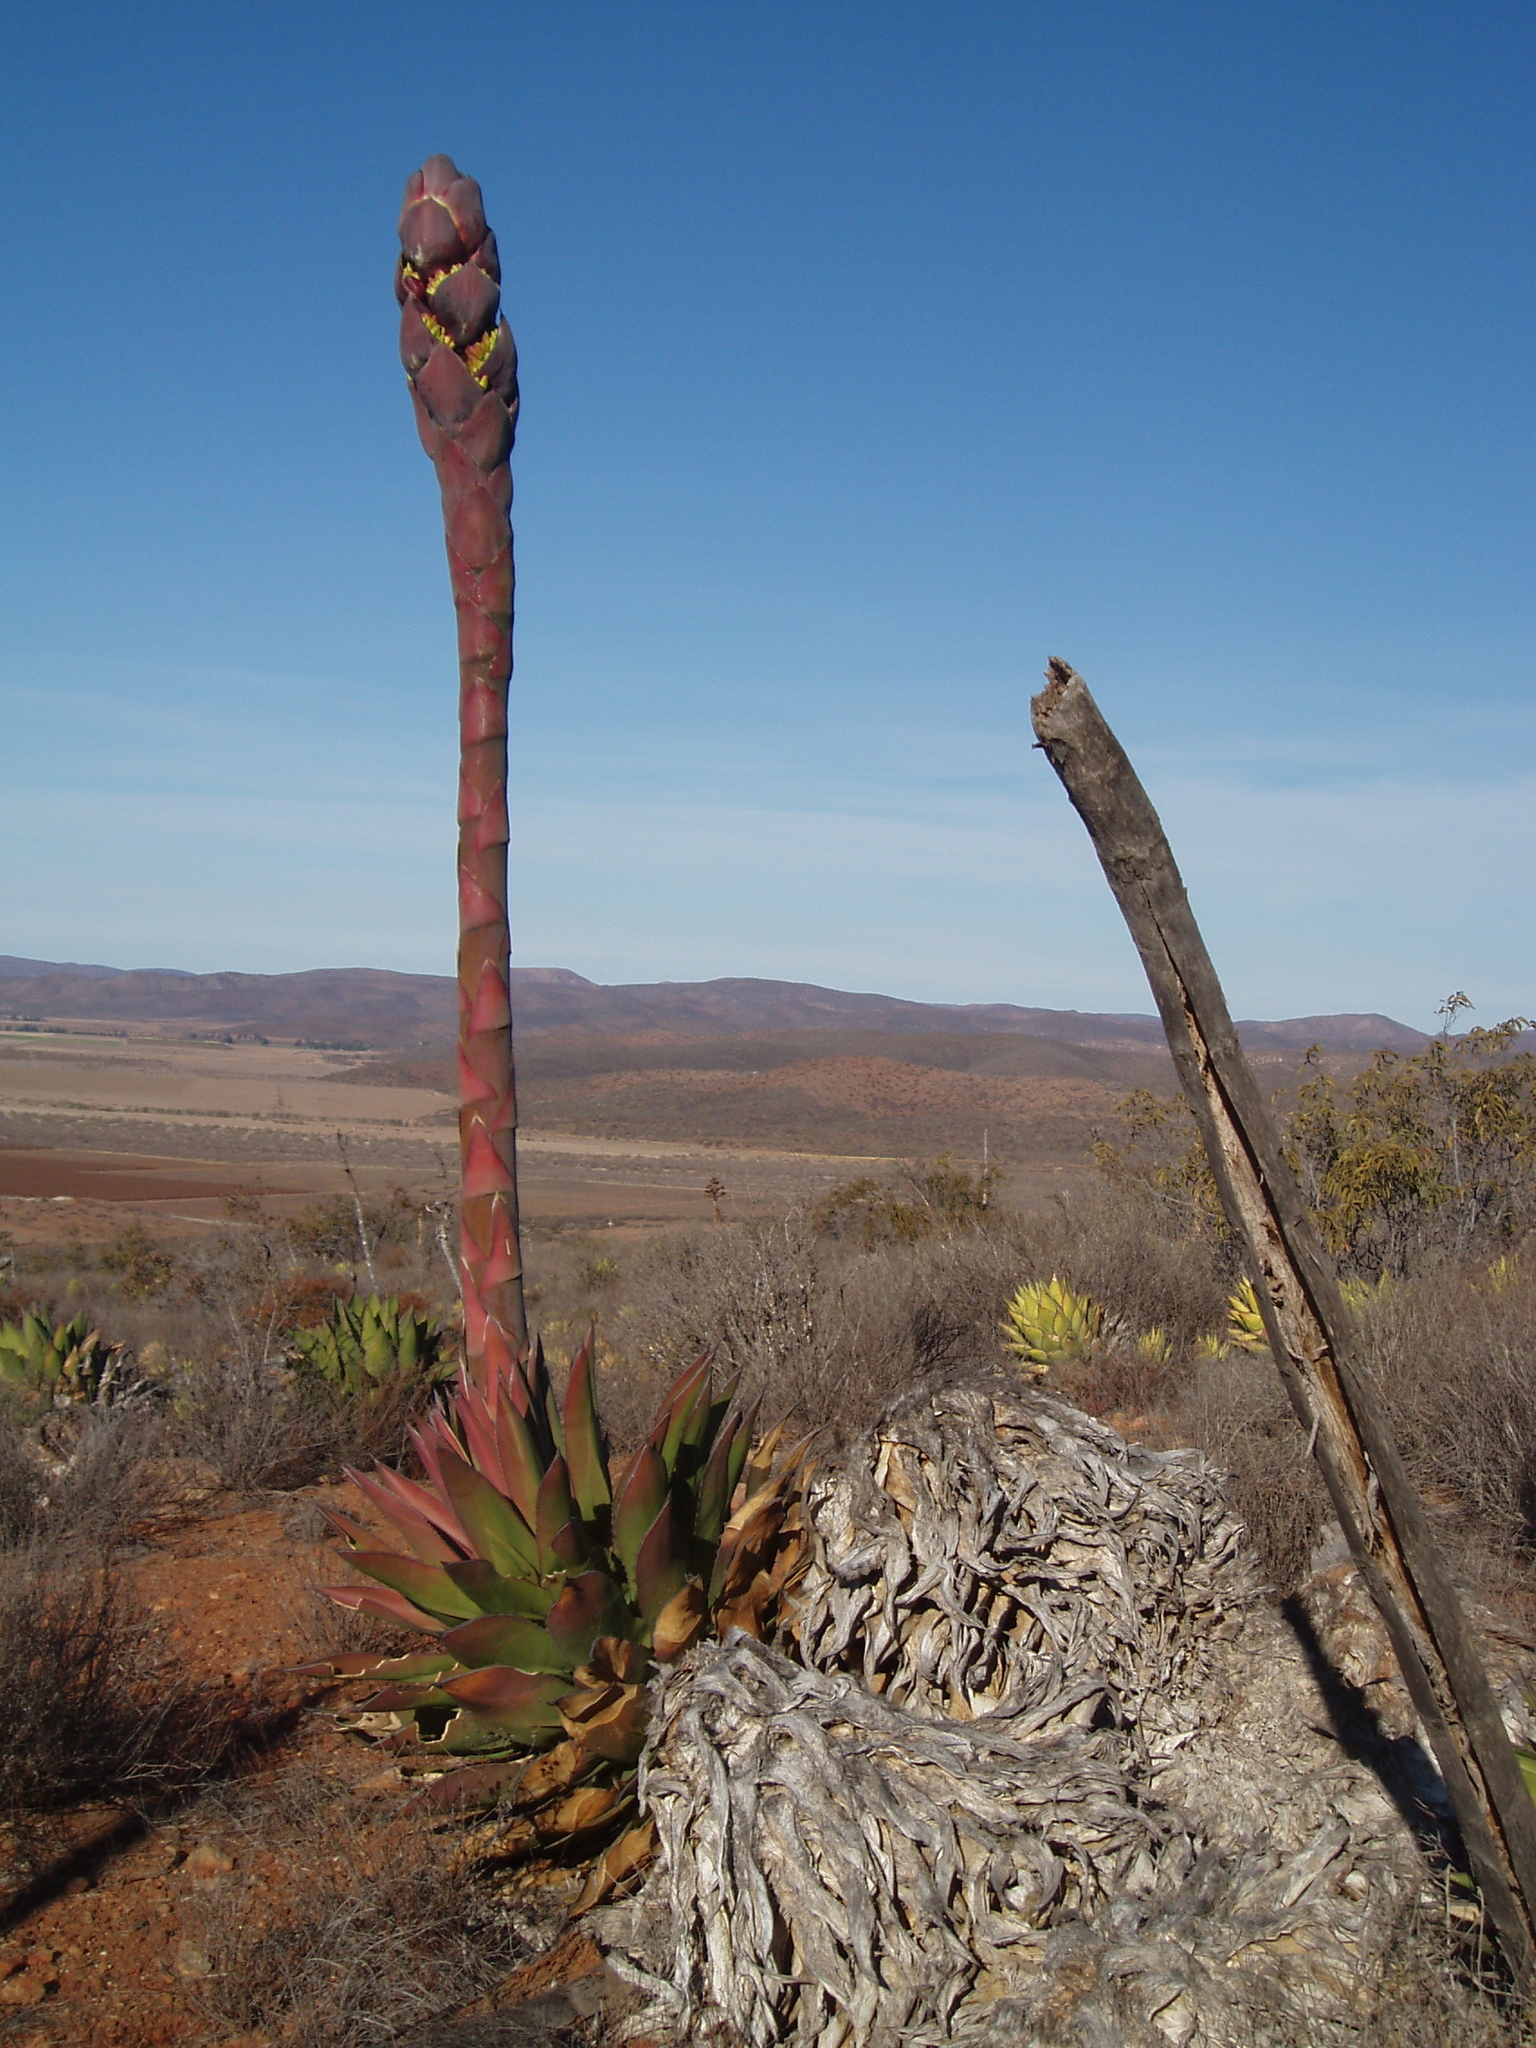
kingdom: Plantae
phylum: Tracheophyta
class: Liliopsida
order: Asparagales
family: Asparagaceae
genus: Agave
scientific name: Agave shawii
